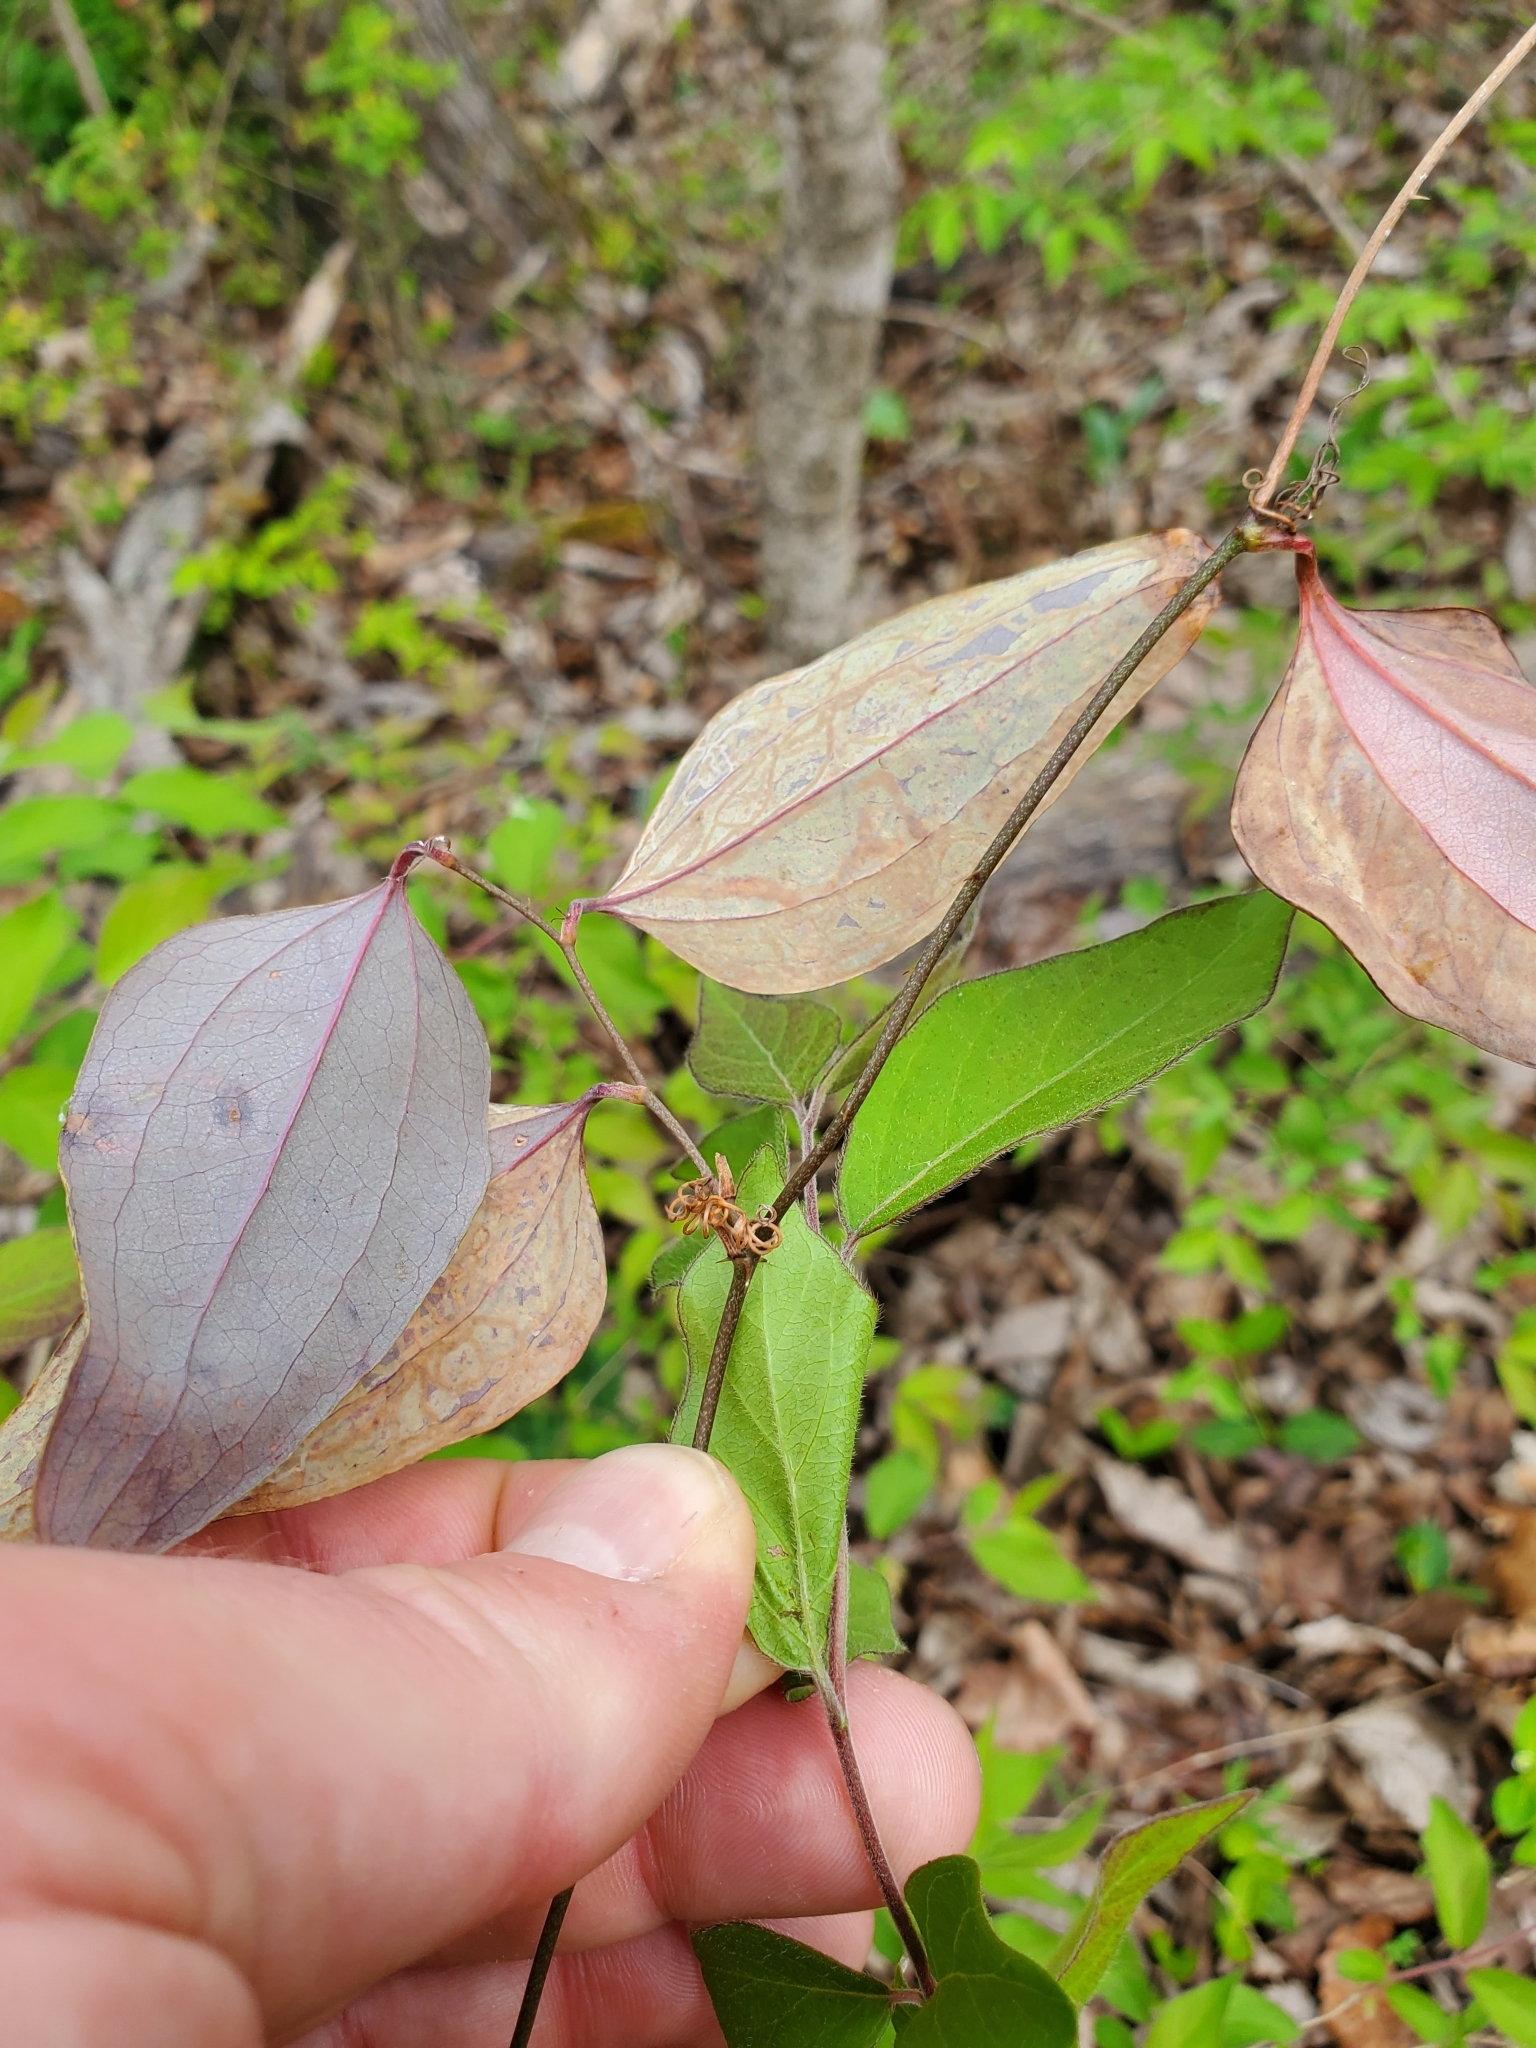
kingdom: Animalia
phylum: Arthropoda
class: Insecta
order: Lepidoptera
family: Gracillariidae
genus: Marmara
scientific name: Marmara smilacisella
